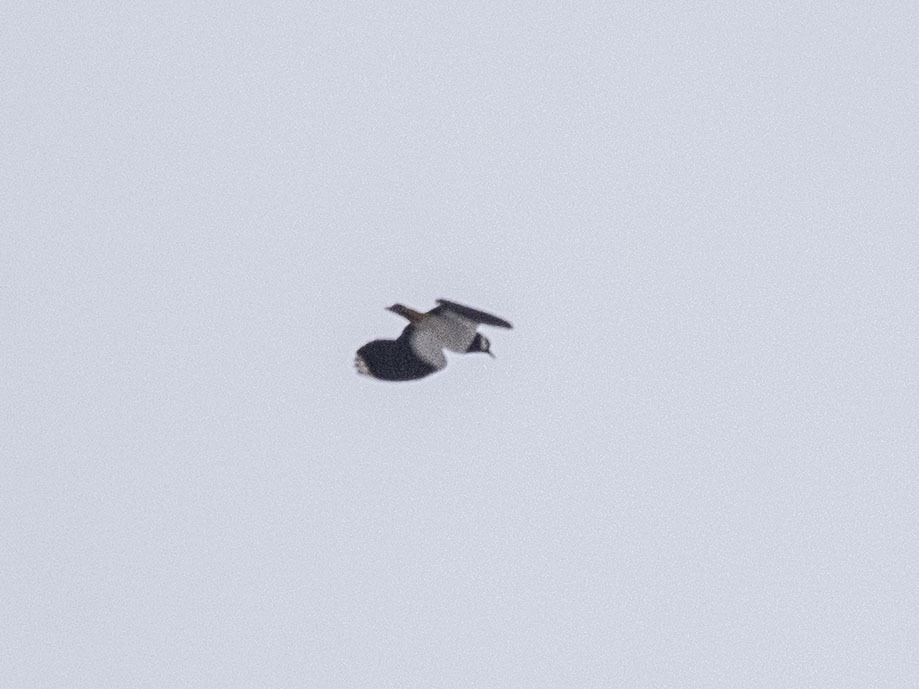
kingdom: Animalia
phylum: Chordata
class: Aves
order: Charadriiformes
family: Charadriidae
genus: Vanellus
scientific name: Vanellus vanellus
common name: Northern lapwing
